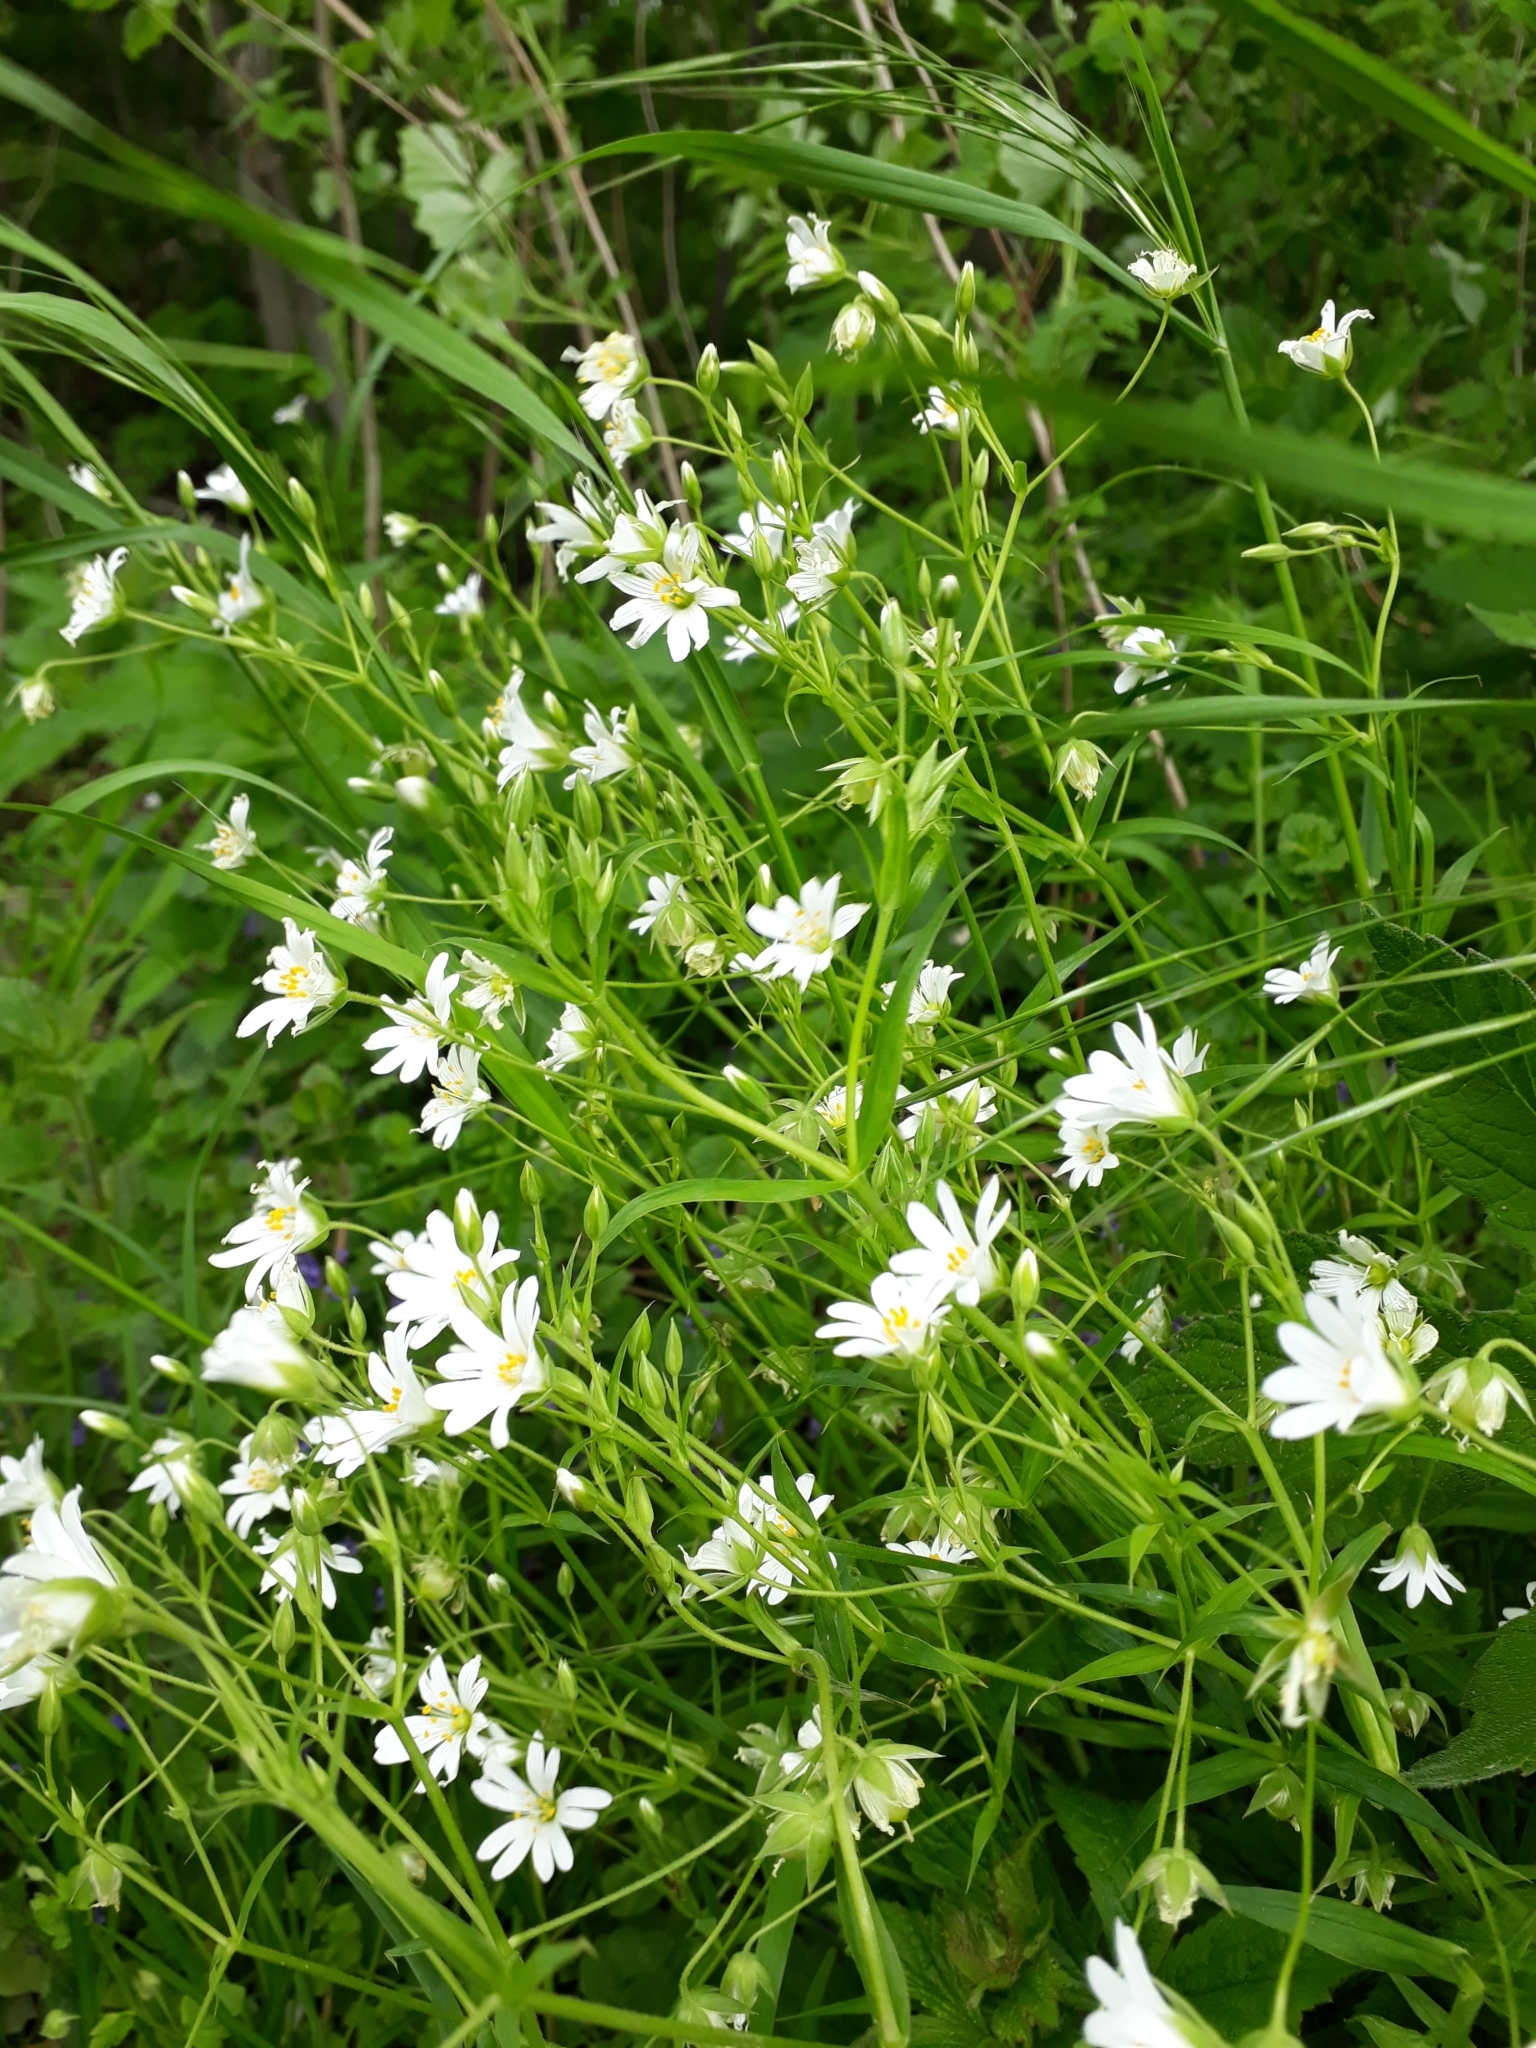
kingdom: Plantae
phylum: Tracheophyta
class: Magnoliopsida
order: Caryophyllales
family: Caryophyllaceae
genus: Rabelera
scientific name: Rabelera holostea
